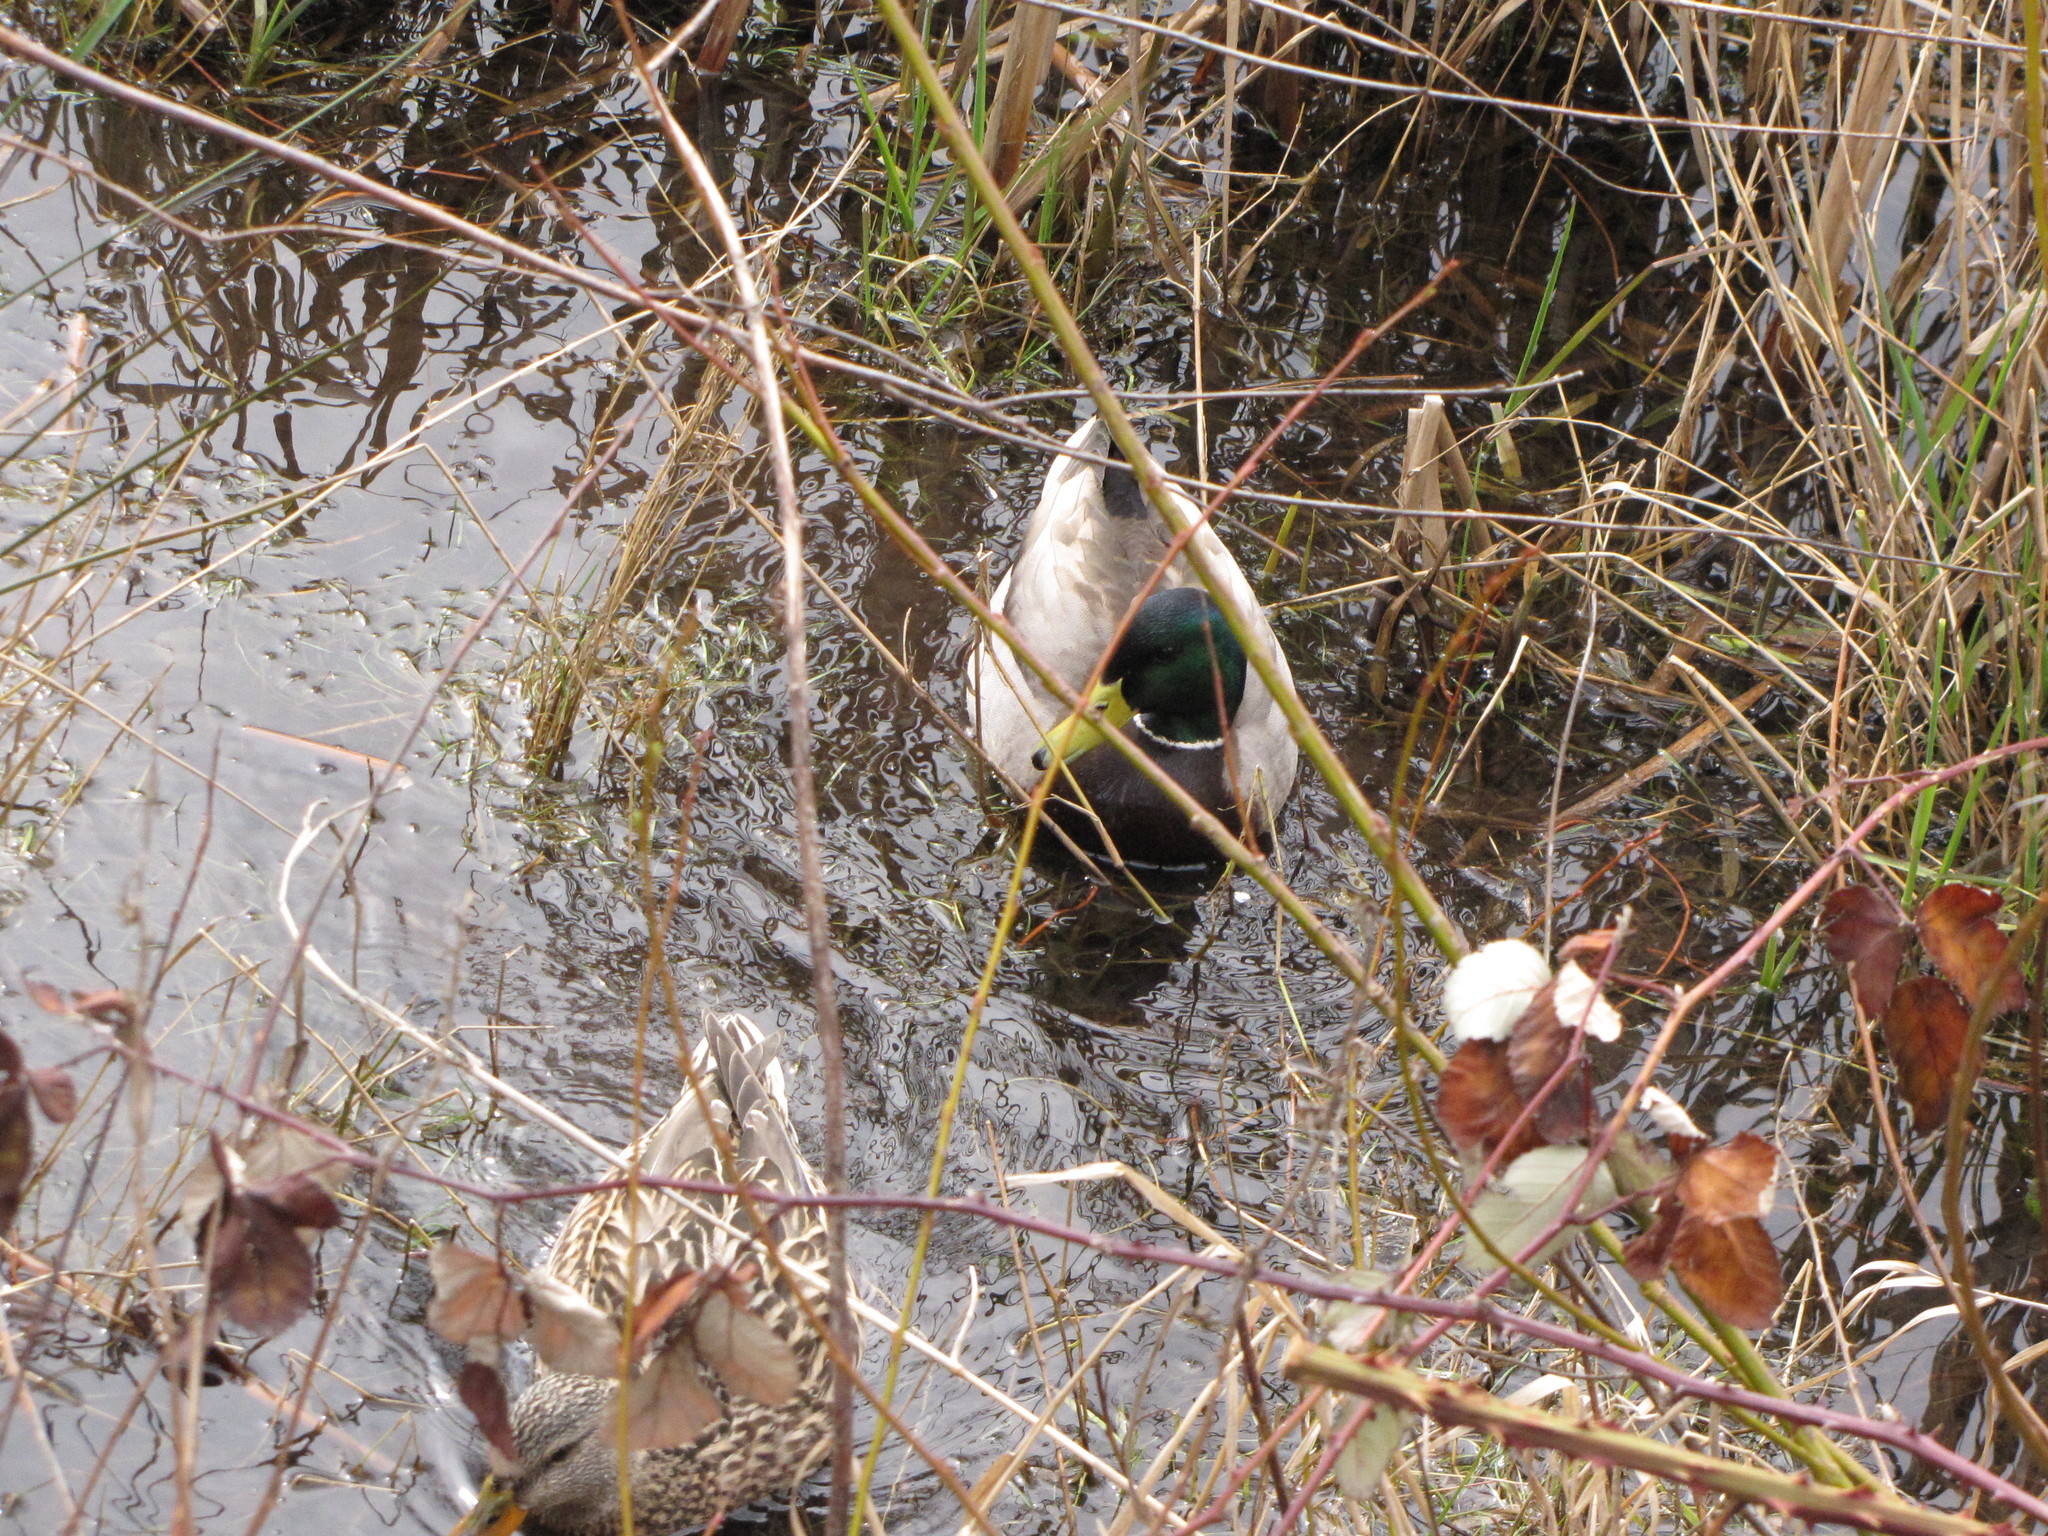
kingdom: Animalia
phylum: Chordata
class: Aves
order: Anseriformes
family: Anatidae
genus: Anas
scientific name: Anas platyrhynchos
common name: Mallard
